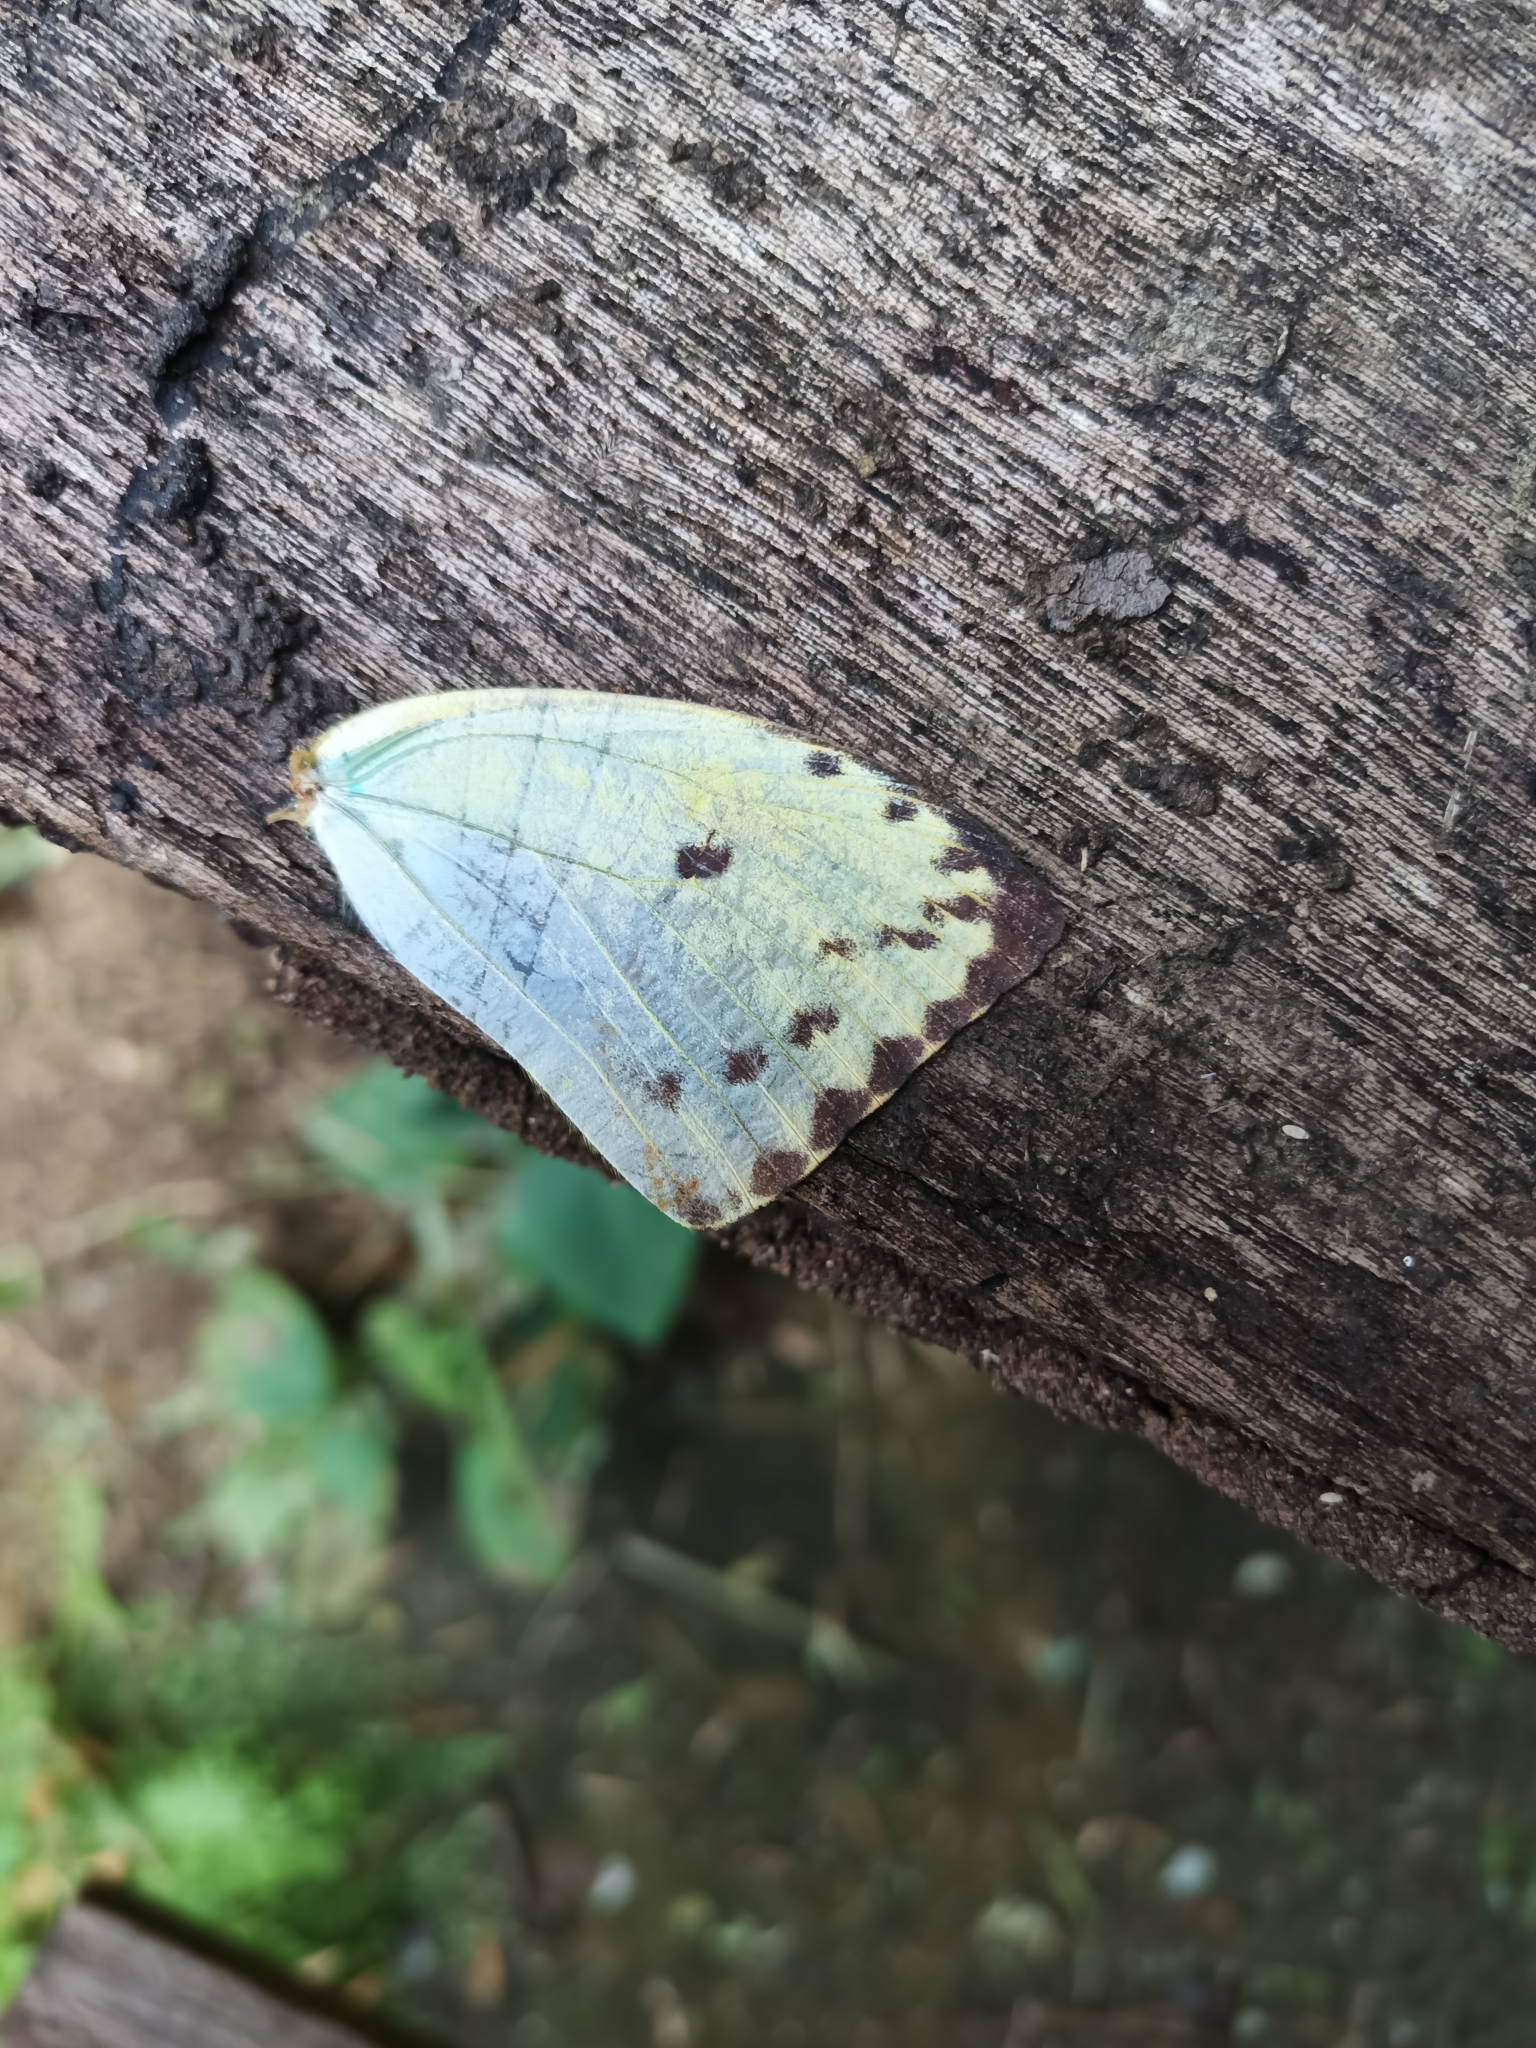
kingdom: Animalia
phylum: Arthropoda
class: Insecta
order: Lepidoptera
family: Pieridae
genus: Phoebis
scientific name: Phoebis argante
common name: Apricot sulphur
